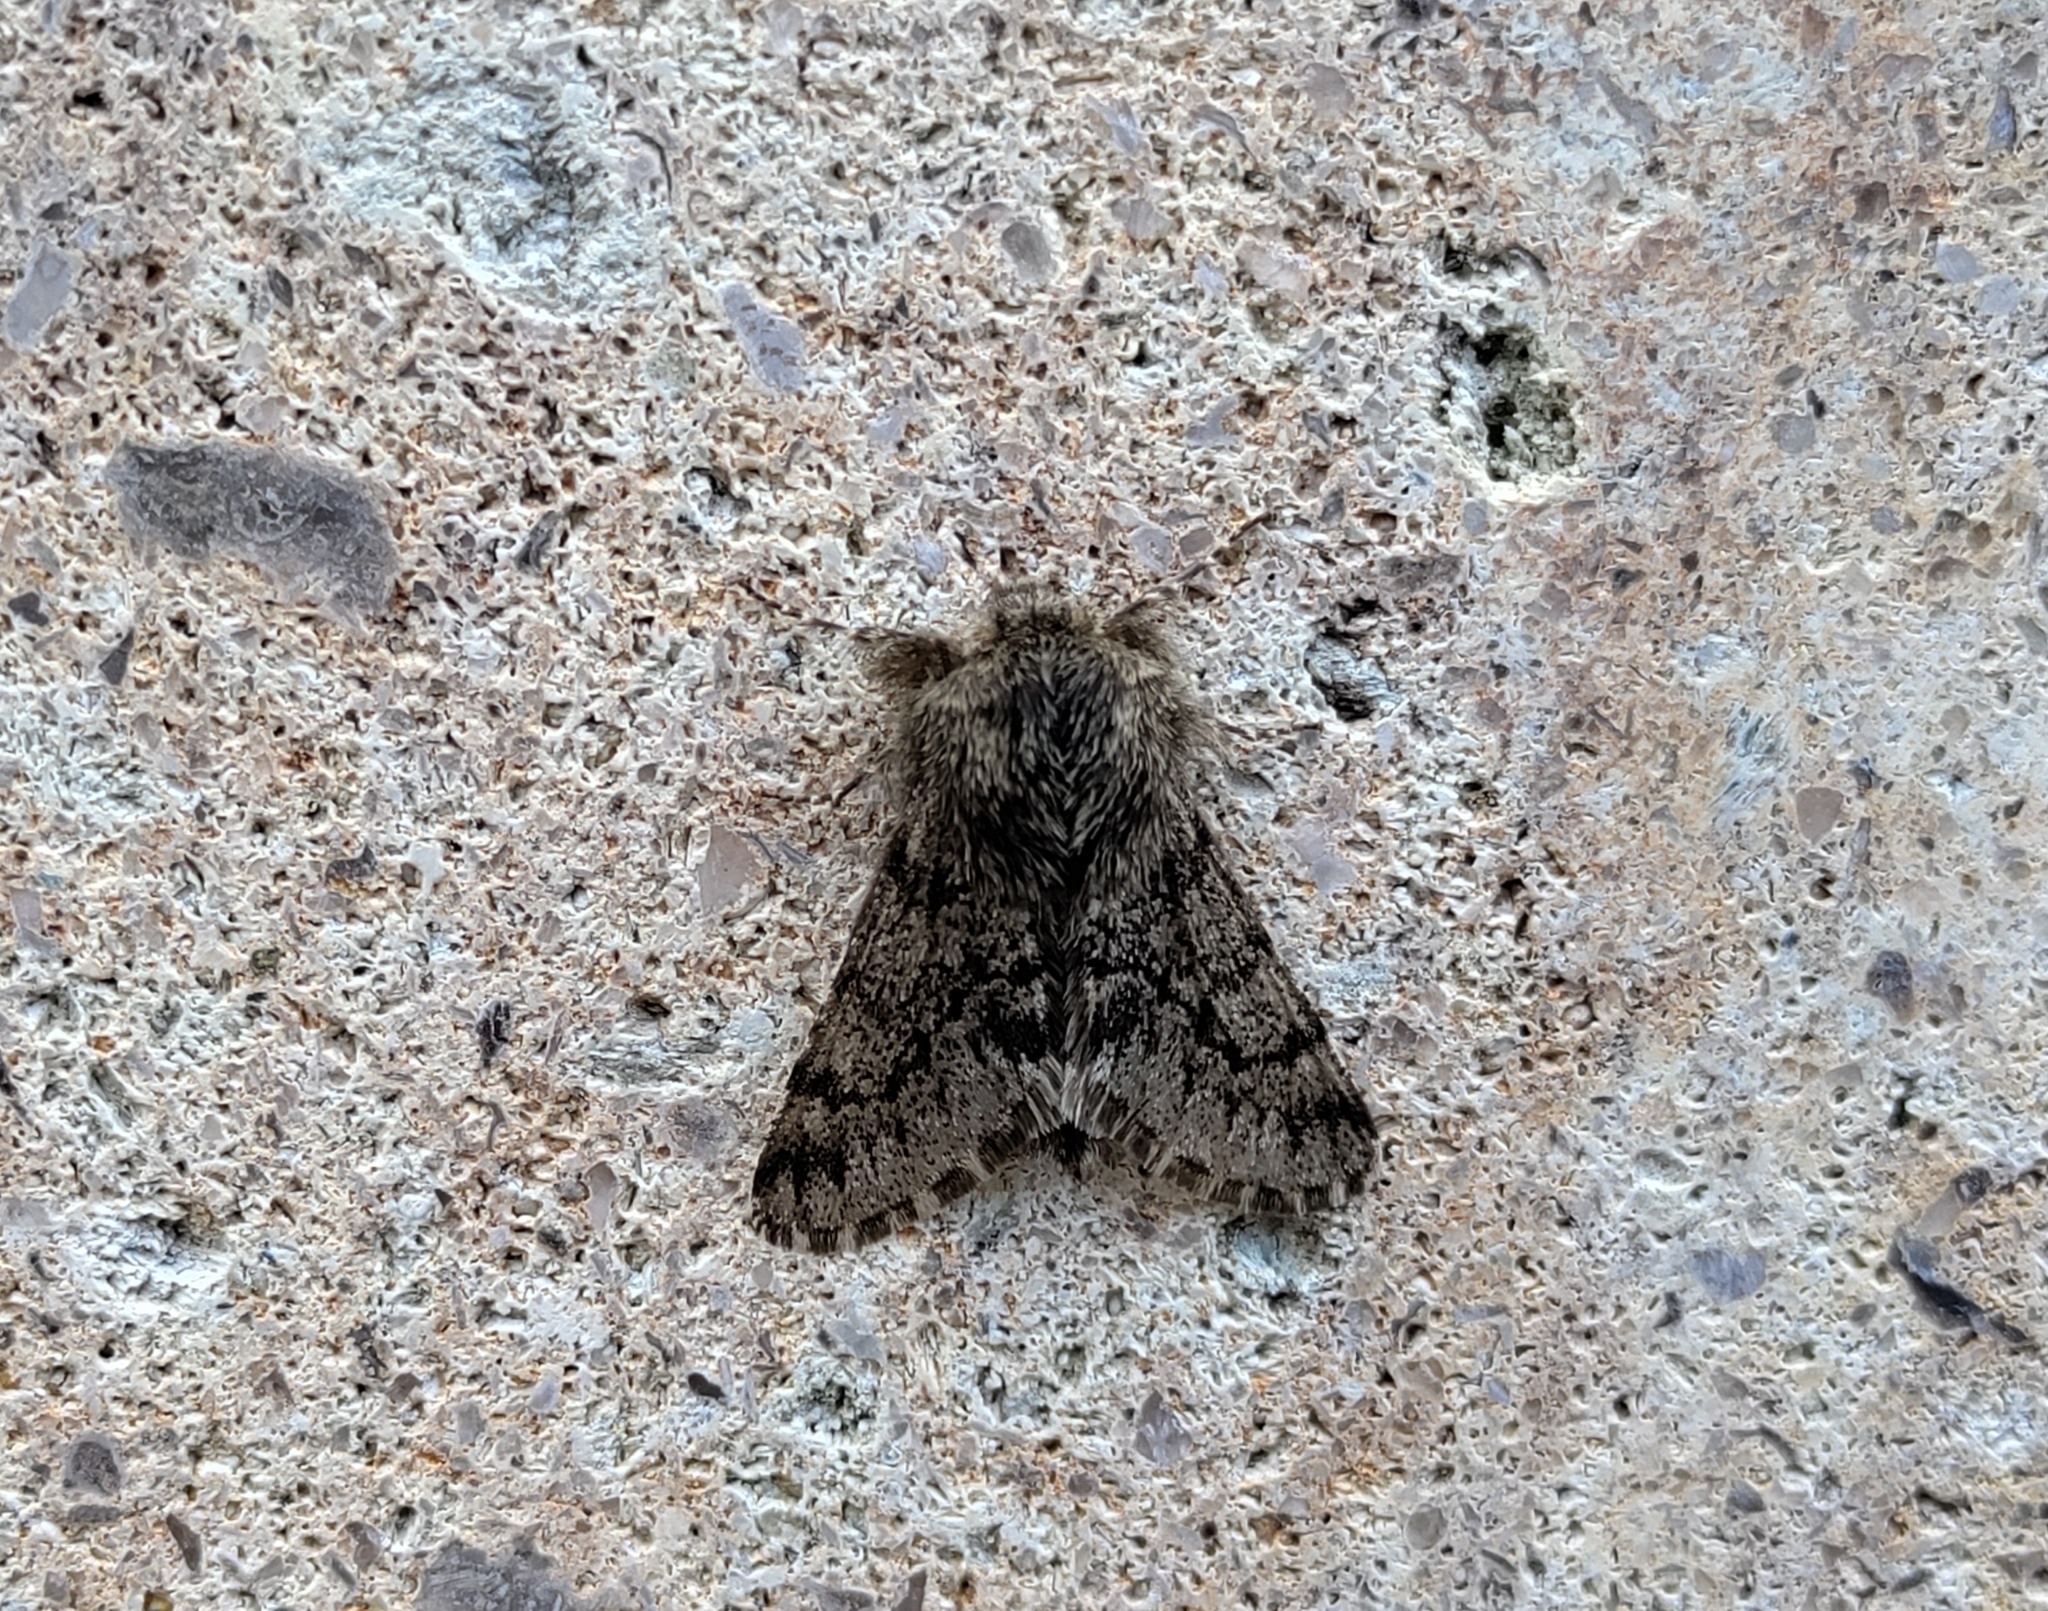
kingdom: Animalia
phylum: Arthropoda
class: Insecta
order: Lepidoptera
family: Geometridae
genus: Apocheima
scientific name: Apocheima hispidaria
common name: Small brindled beauty
